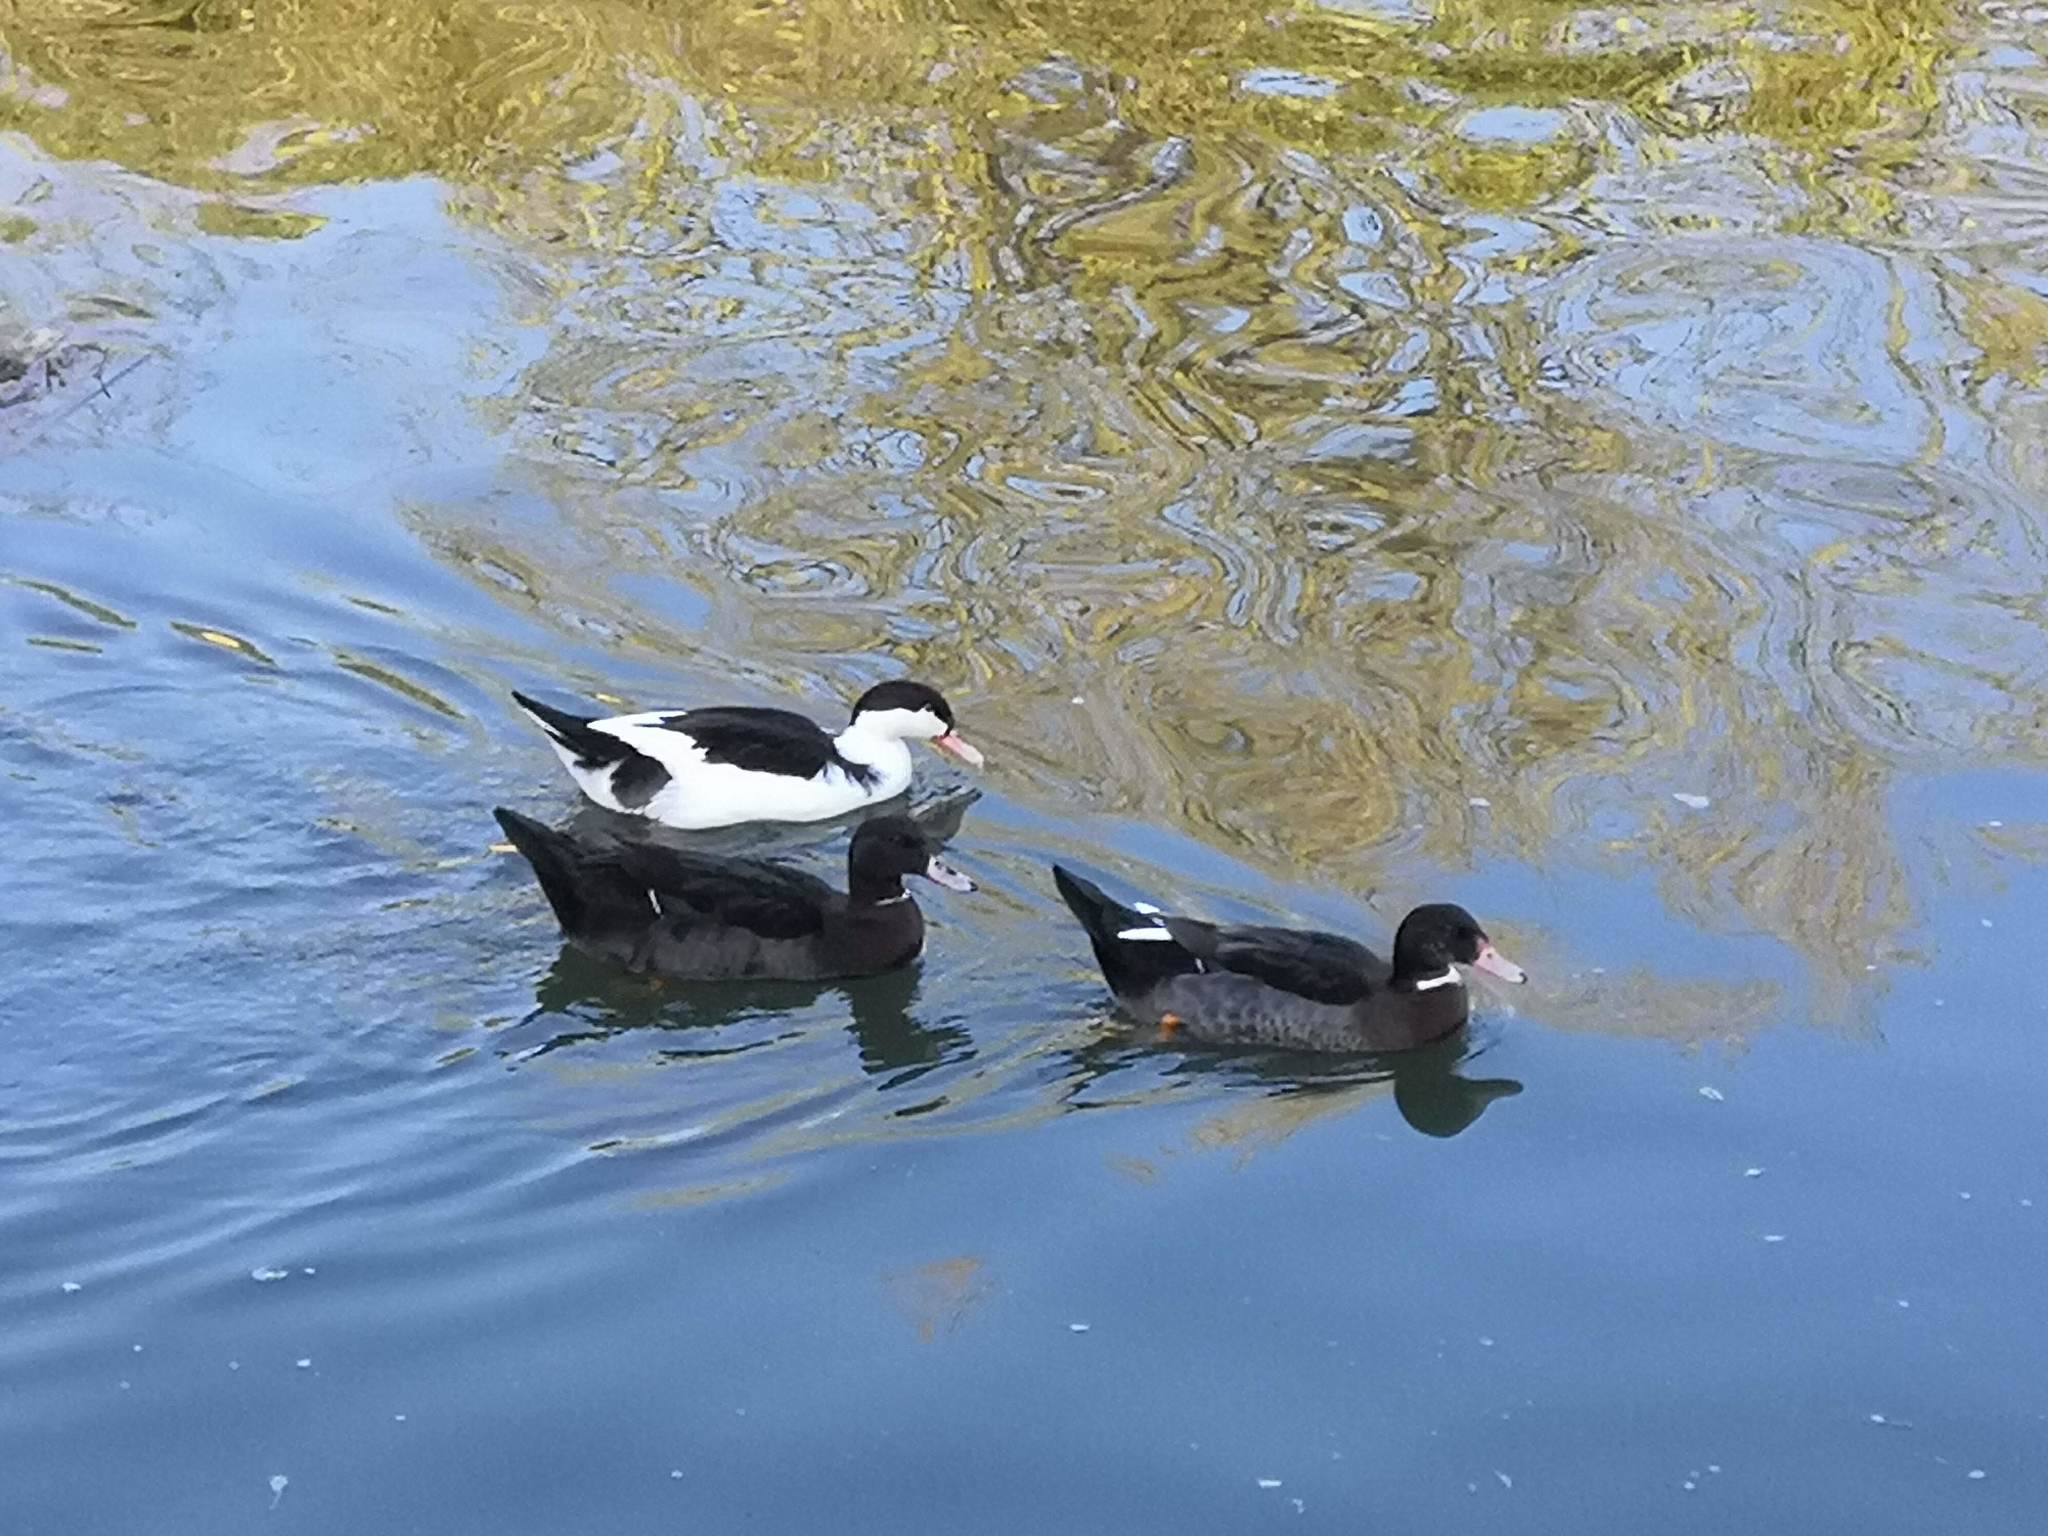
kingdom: Animalia
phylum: Chordata
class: Aves
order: Anseriformes
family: Anatidae
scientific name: Anatidae
